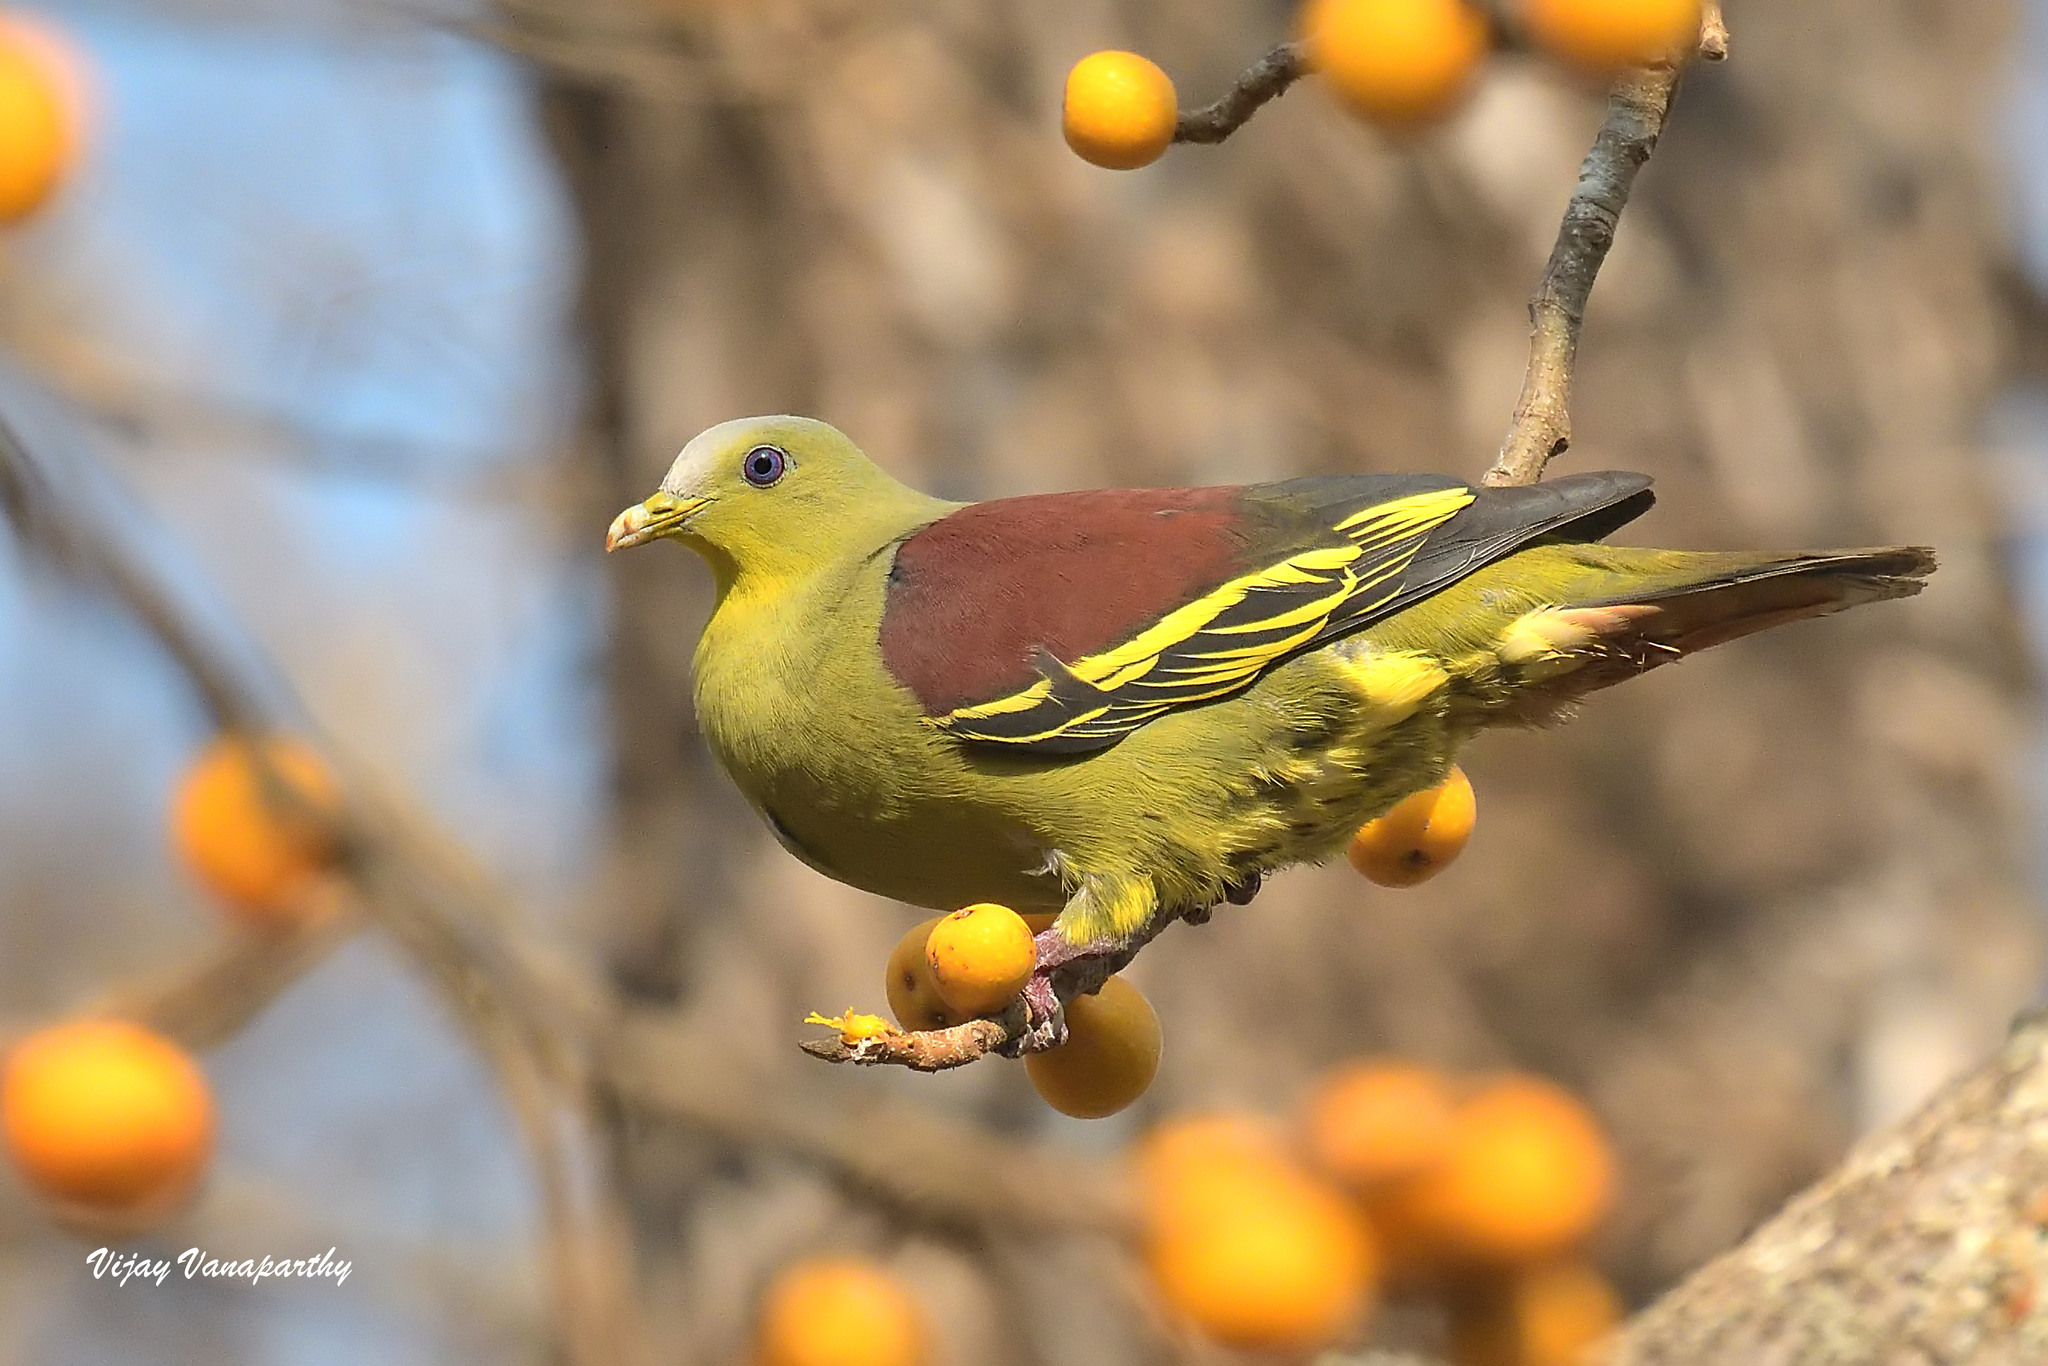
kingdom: Animalia
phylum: Chordata
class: Aves
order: Columbiformes
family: Columbidae
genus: Treron
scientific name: Treron affinis
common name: Grey-fronted green pigeon
